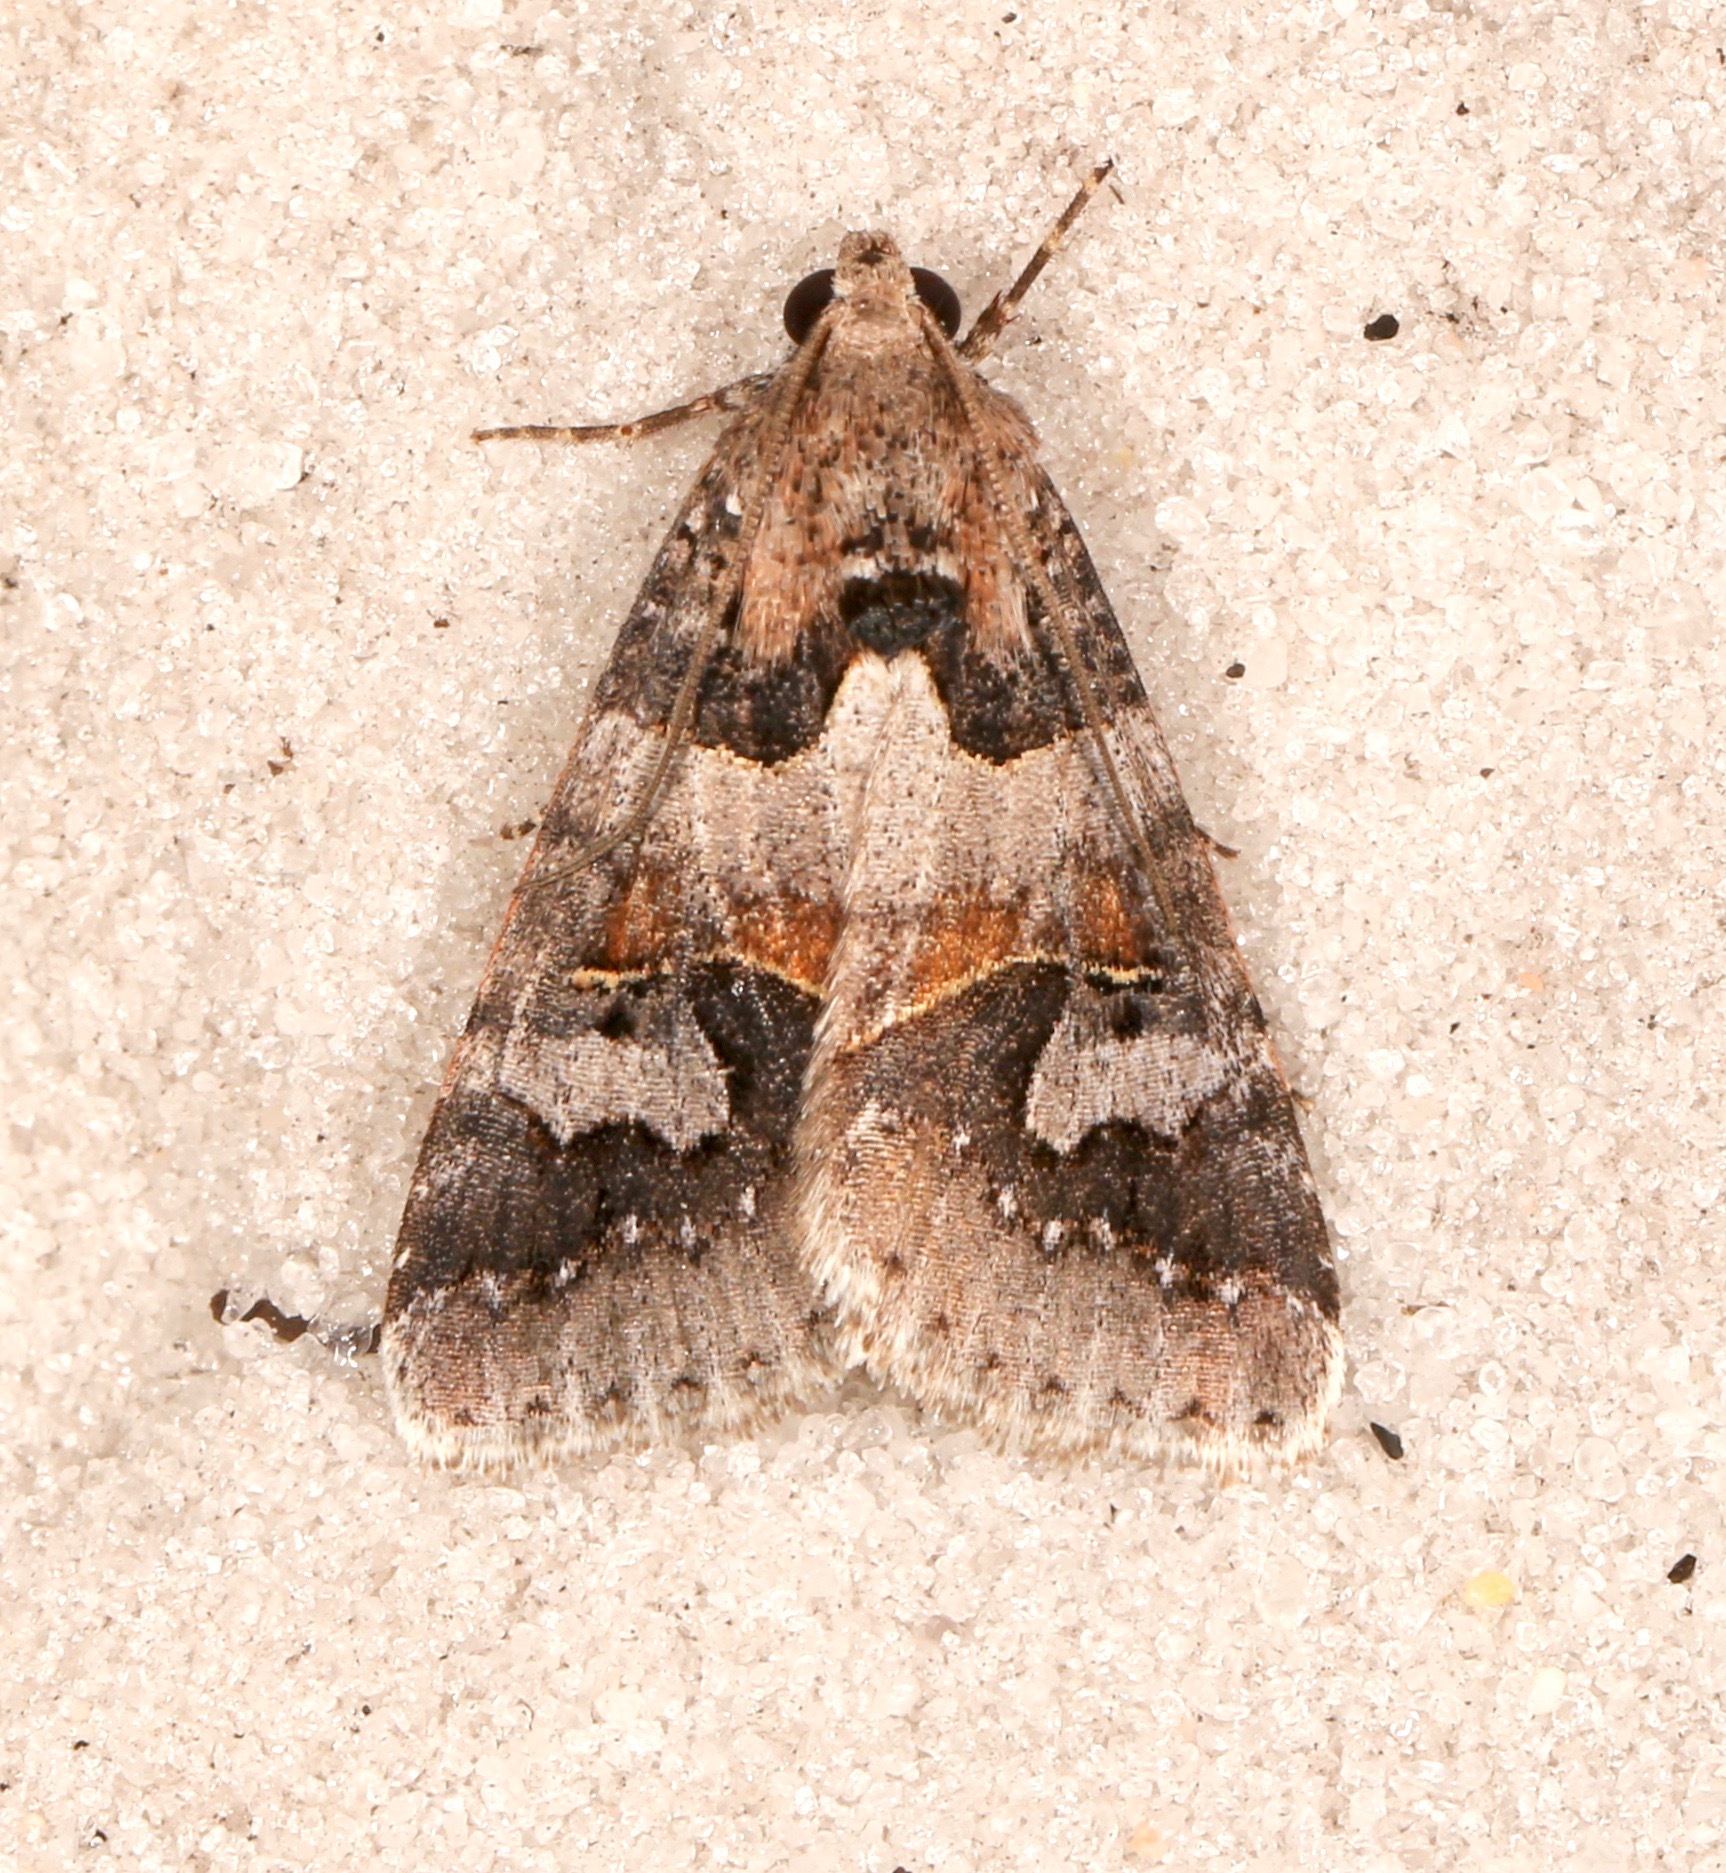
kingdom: Animalia
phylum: Arthropoda
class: Insecta
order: Lepidoptera
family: Erebidae
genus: Drasteria
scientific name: Drasteria graphica
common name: Coastal graphic
